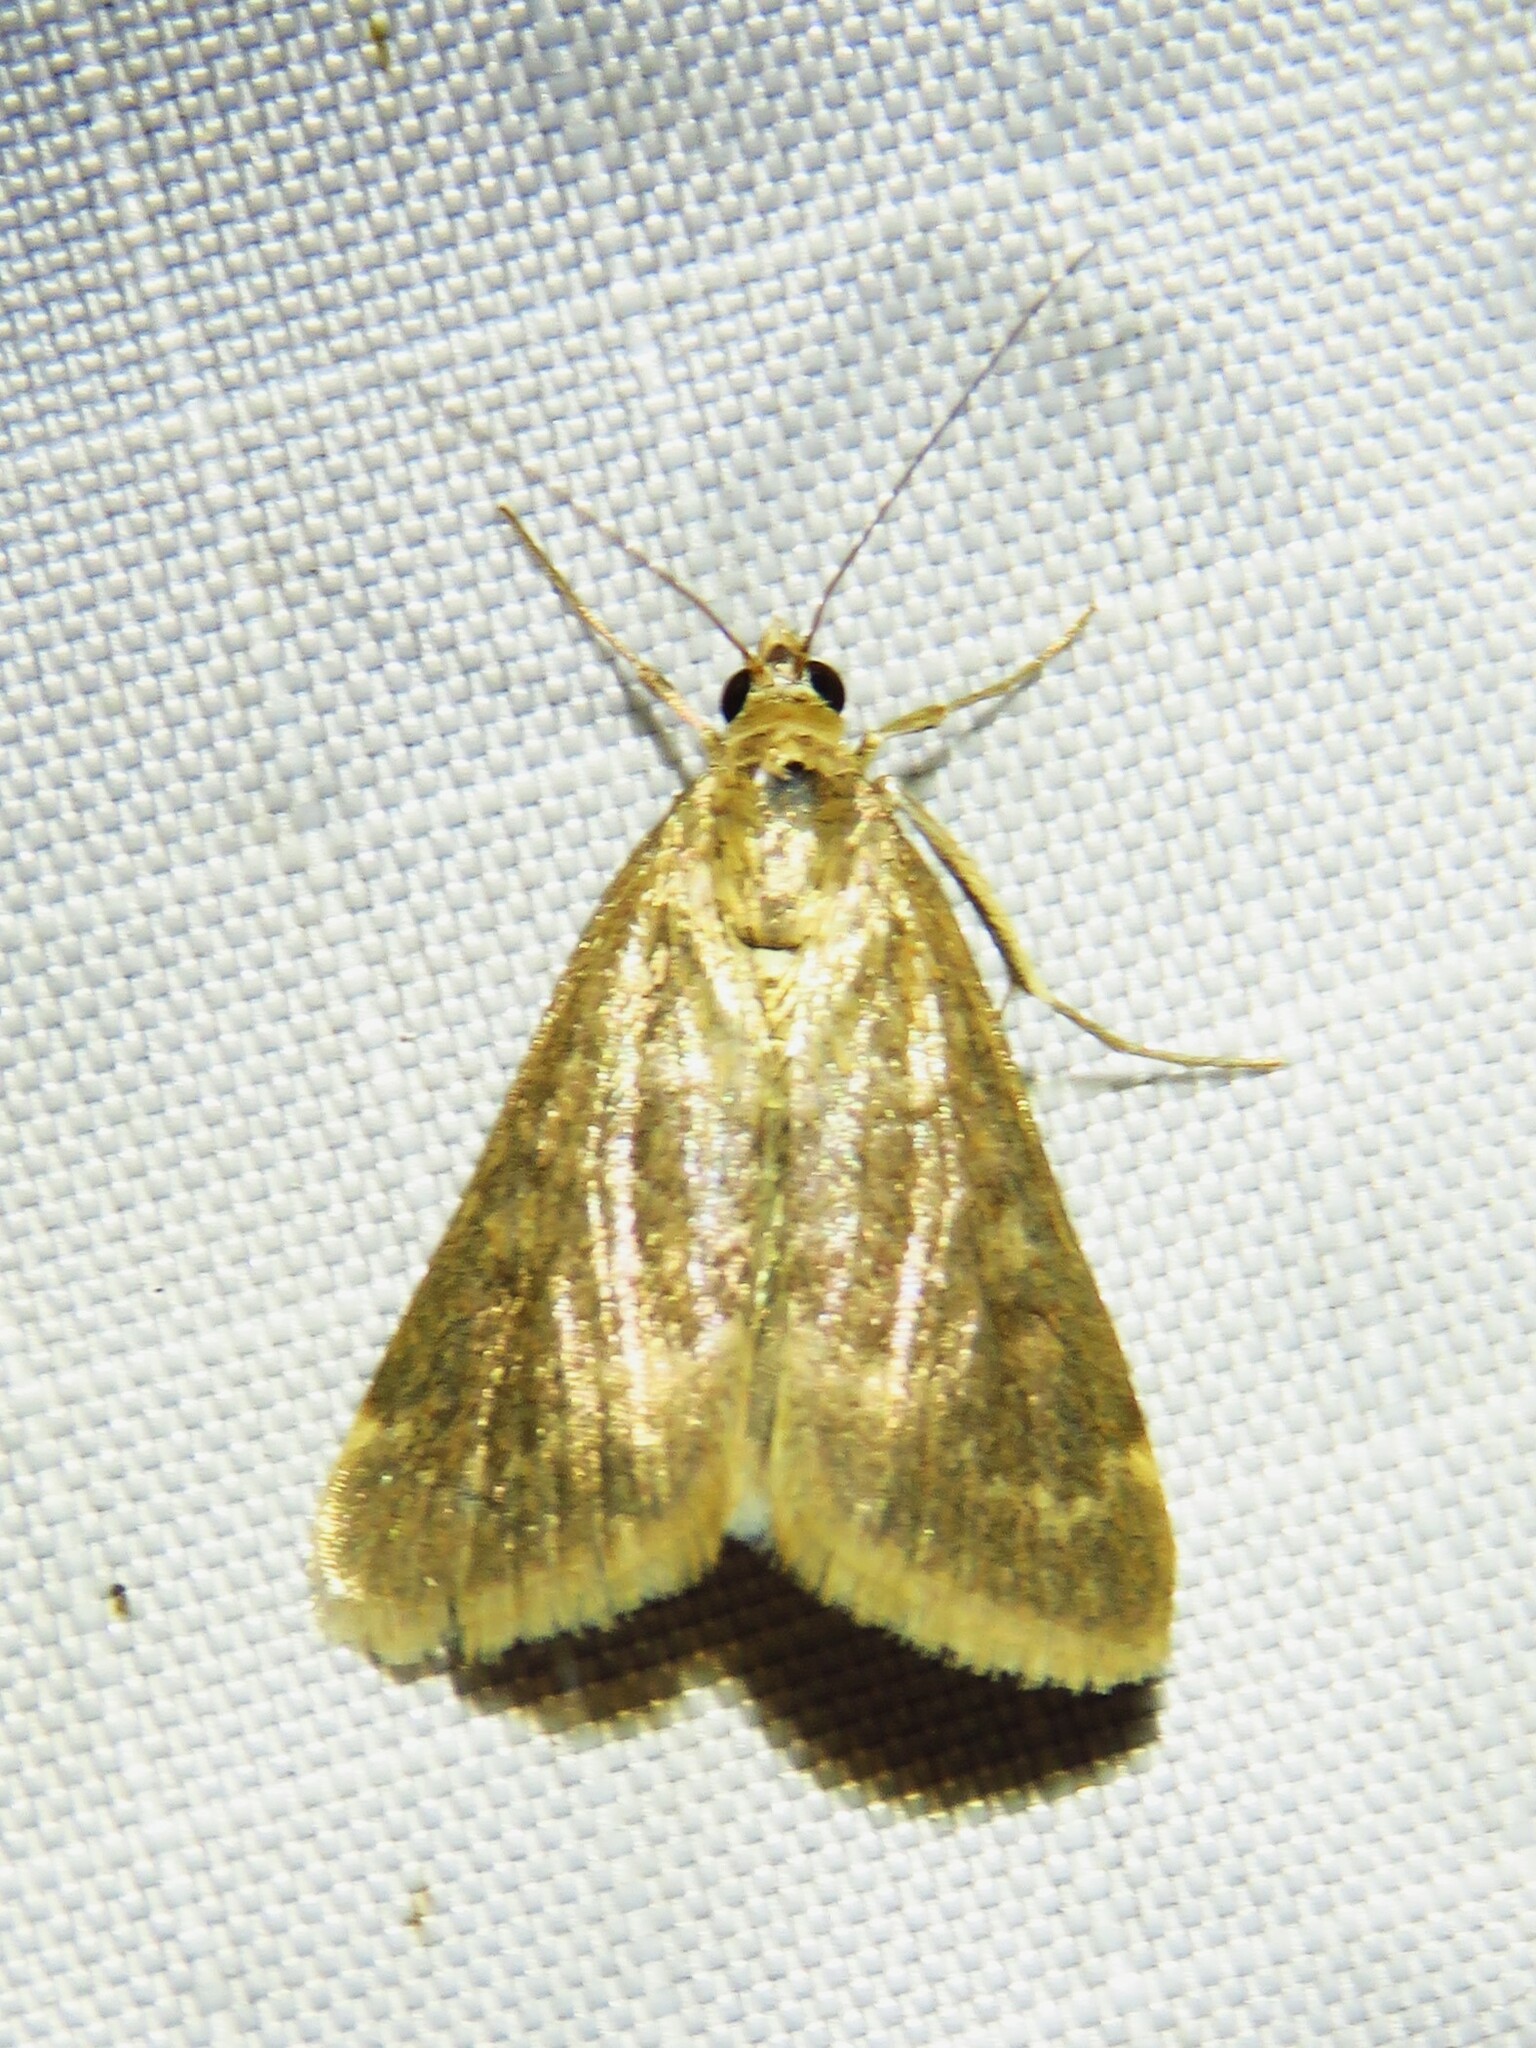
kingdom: Animalia
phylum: Arthropoda
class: Insecta
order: Lepidoptera
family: Crambidae
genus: Achyra
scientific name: Achyra rantalis
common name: Garden webworm
